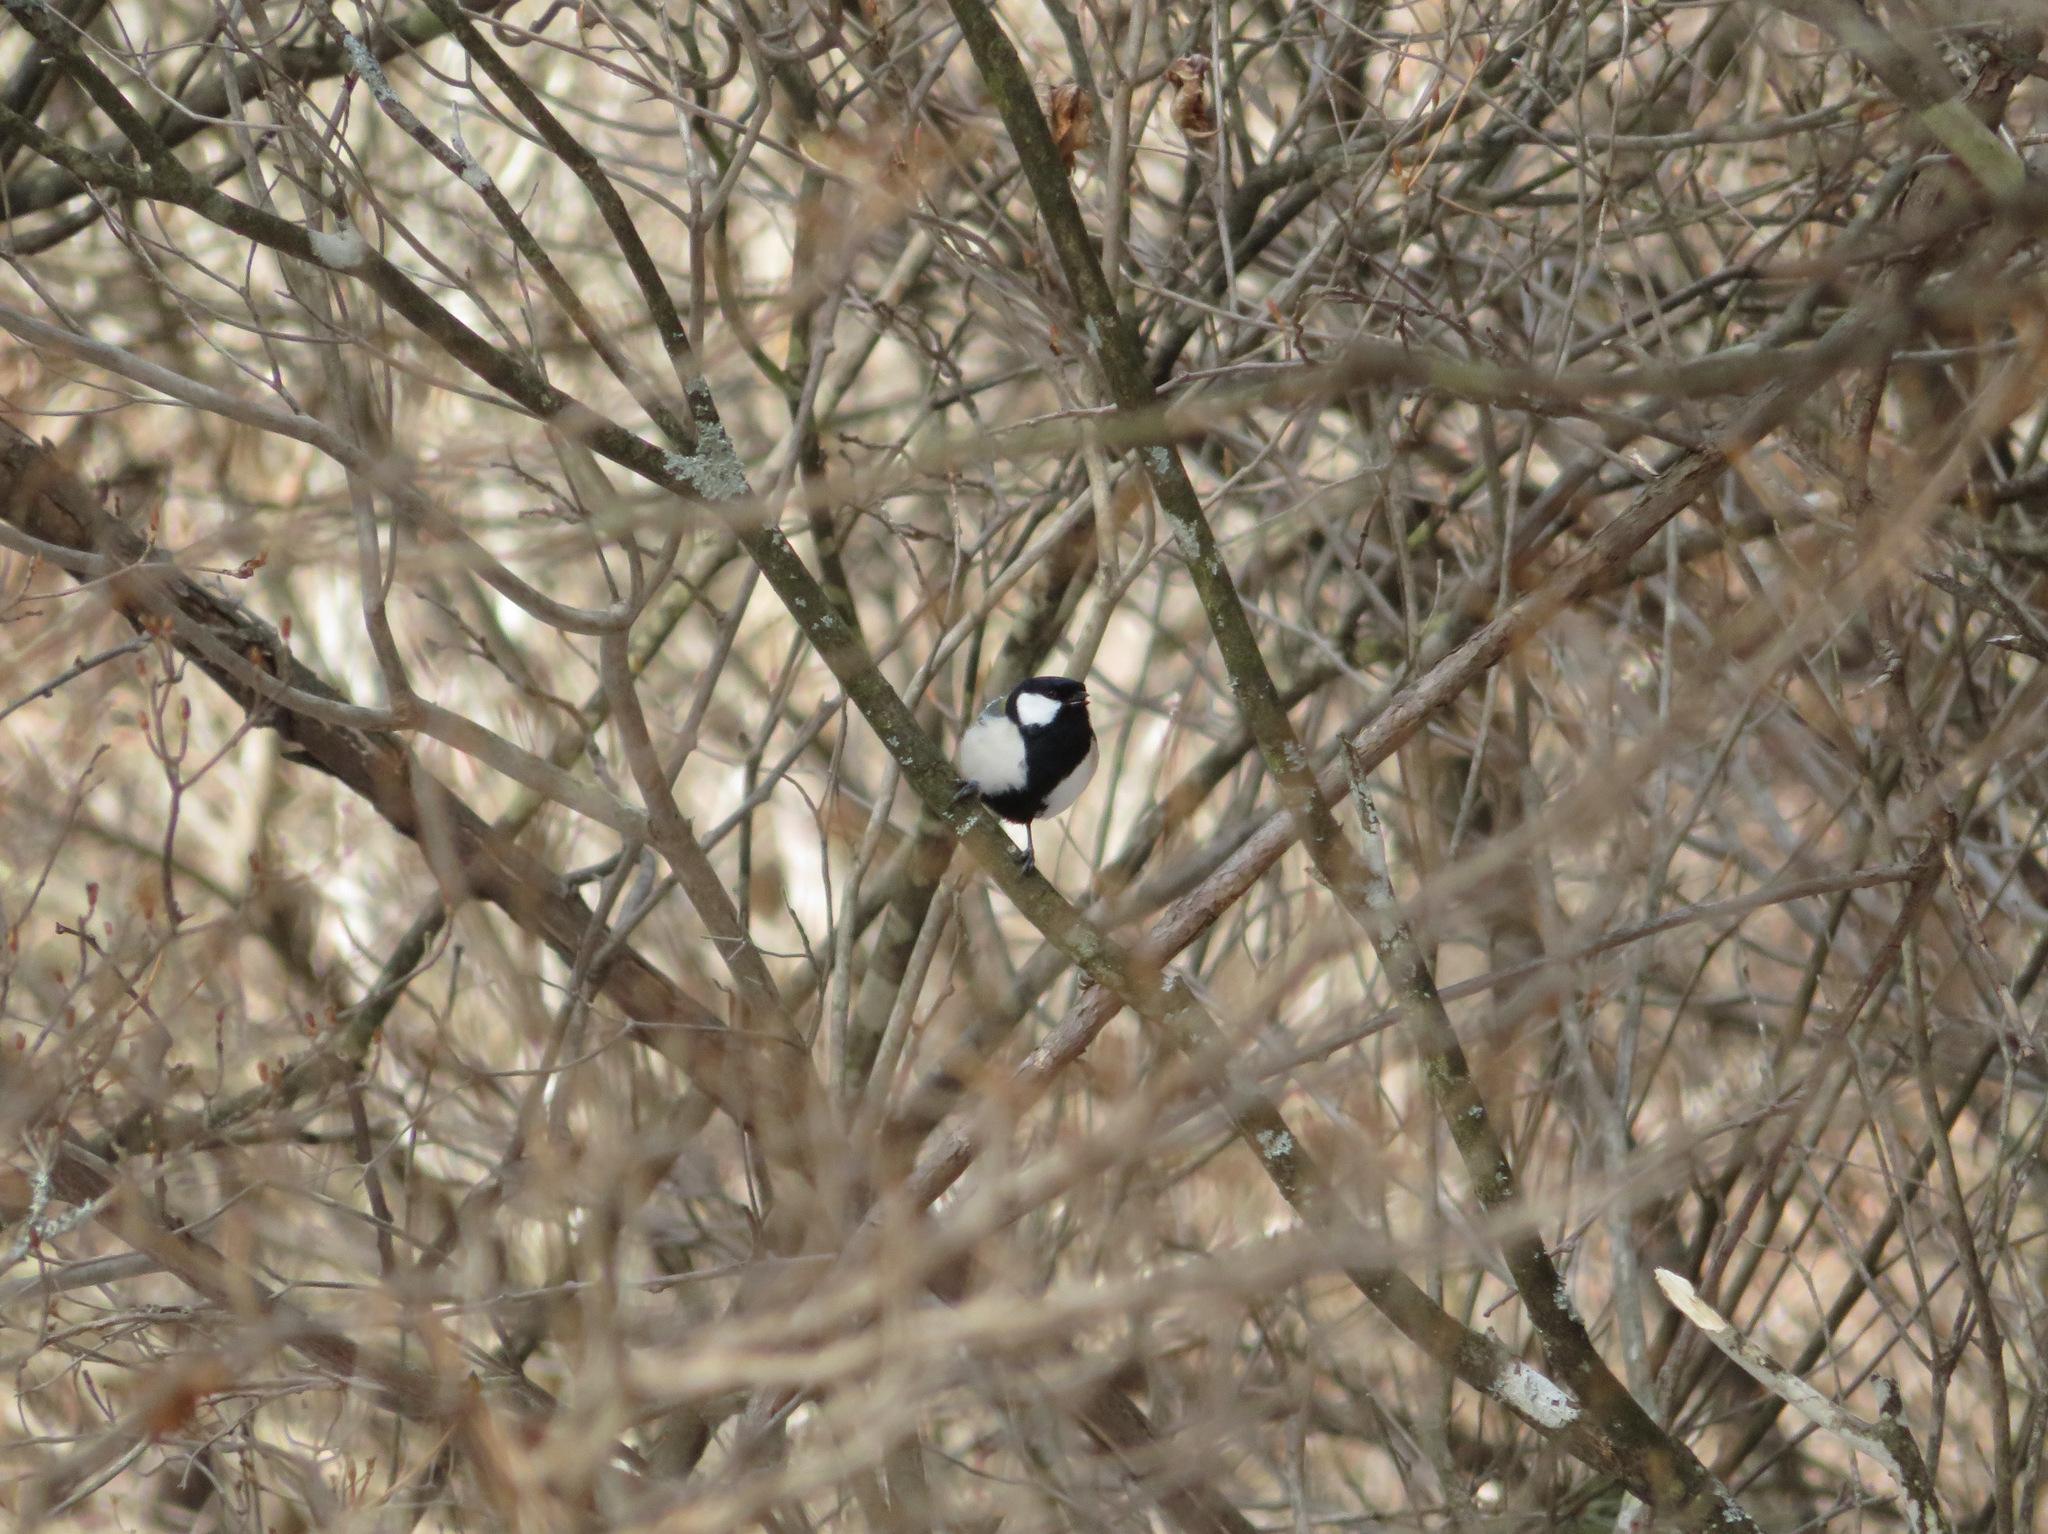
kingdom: Animalia
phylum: Chordata
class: Aves
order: Passeriformes
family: Paridae
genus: Parus
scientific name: Parus minor
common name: Japanese tit
